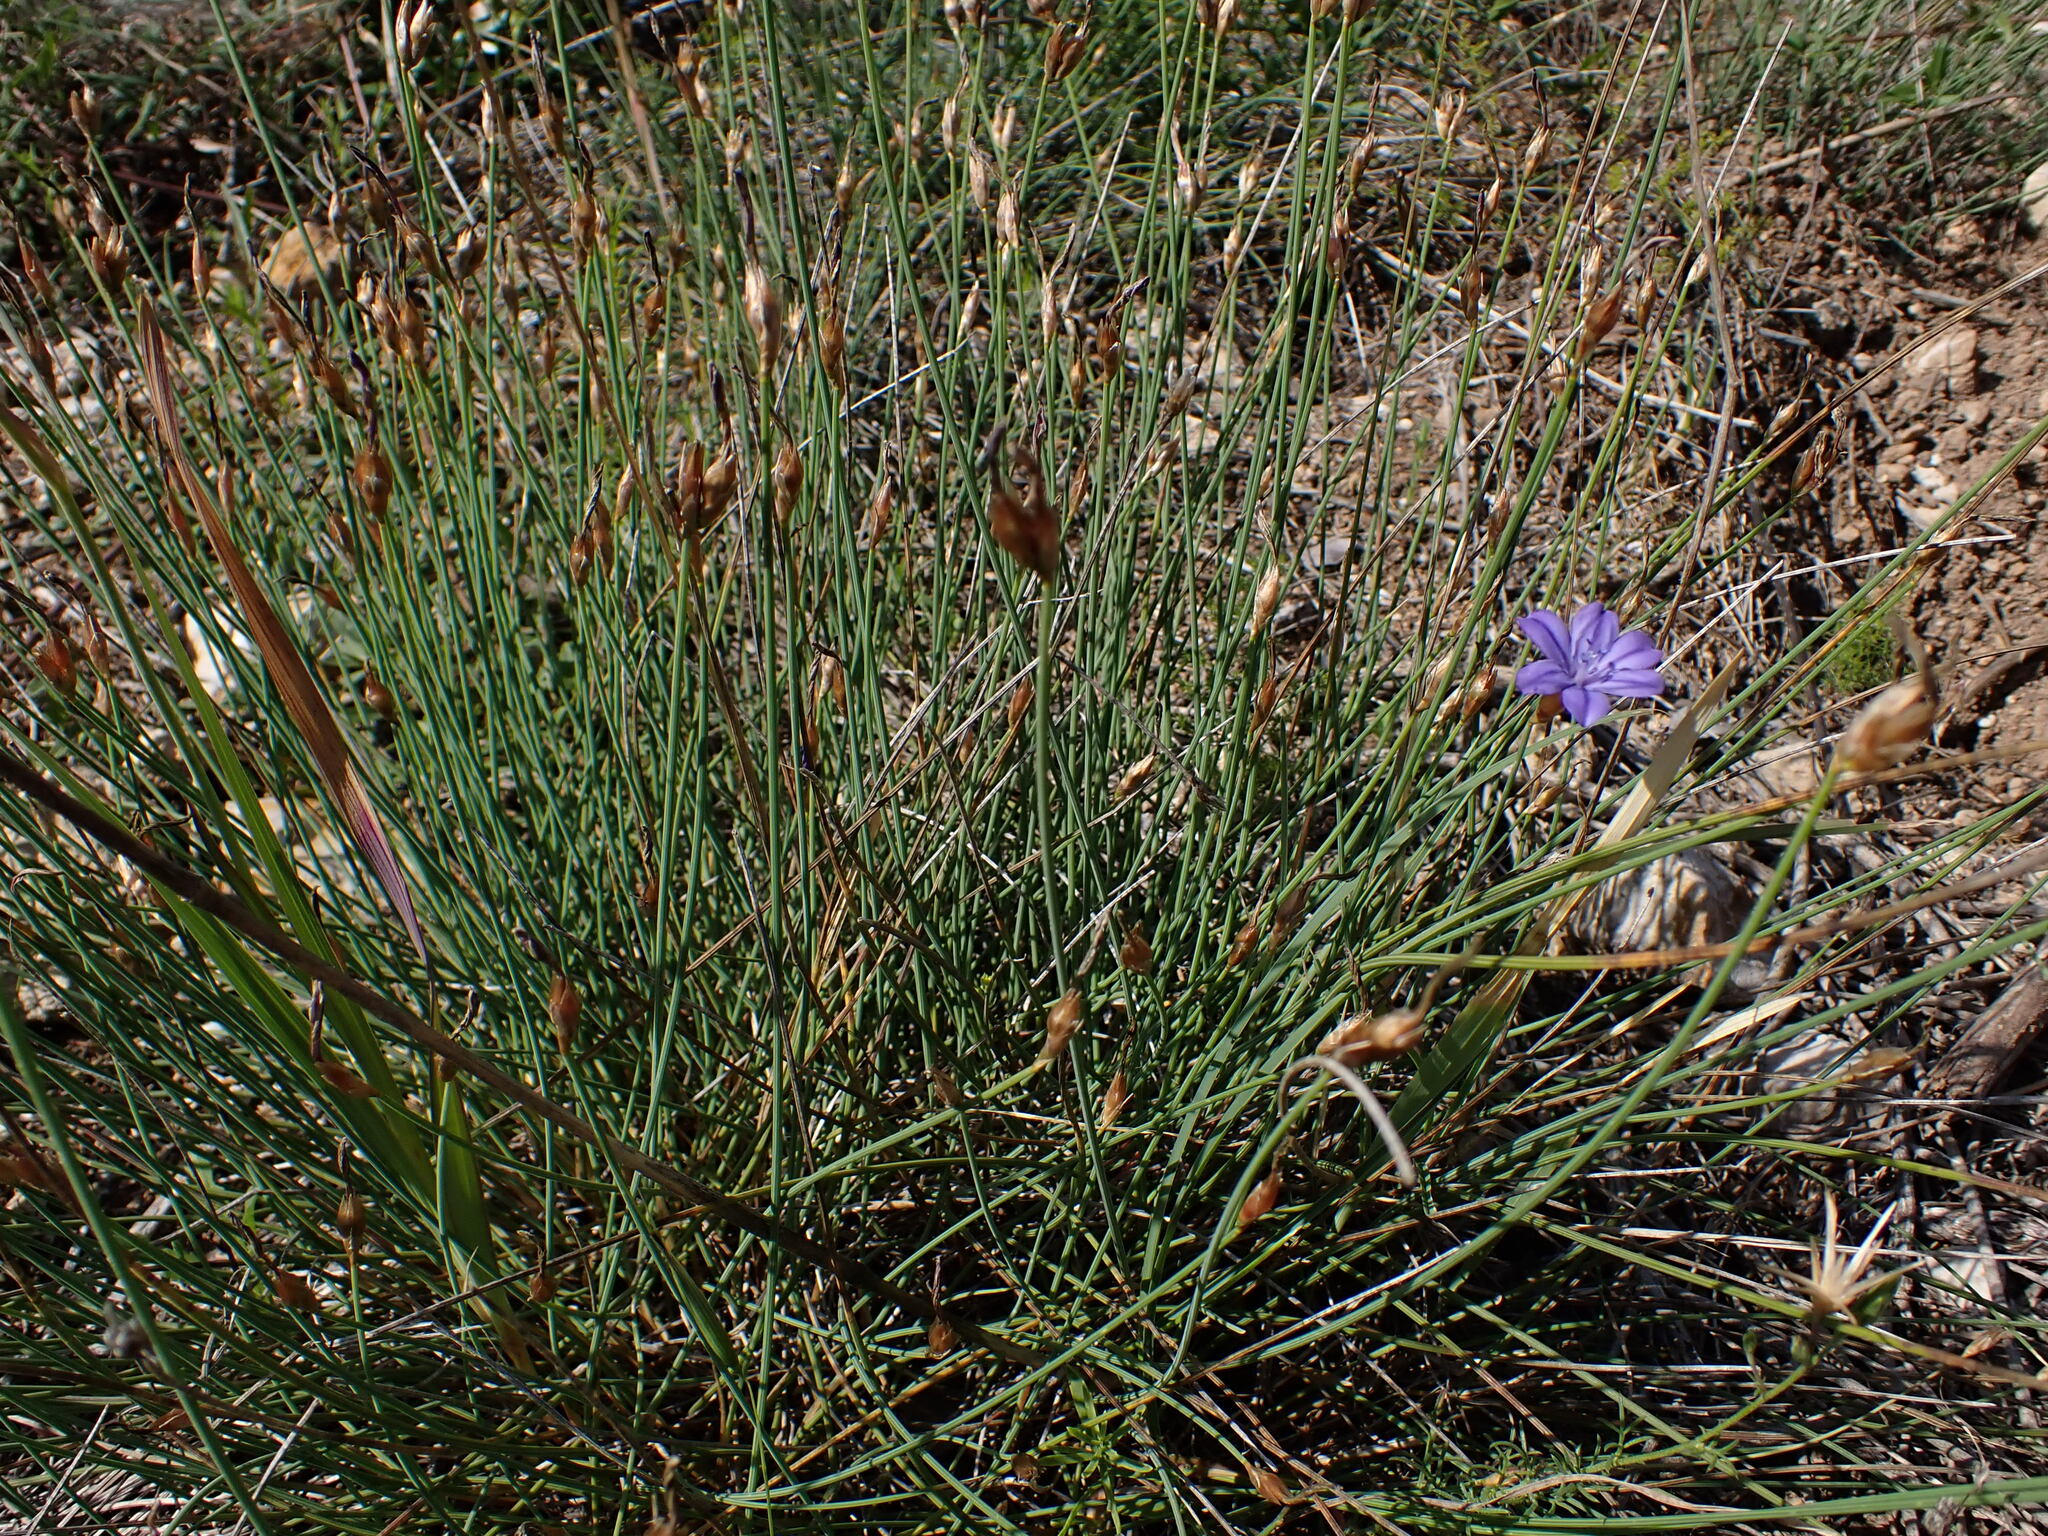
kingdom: Plantae
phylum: Tracheophyta
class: Liliopsida
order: Asparagales
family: Asparagaceae
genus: Aphyllanthes
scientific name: Aphyllanthes monspeliensis
